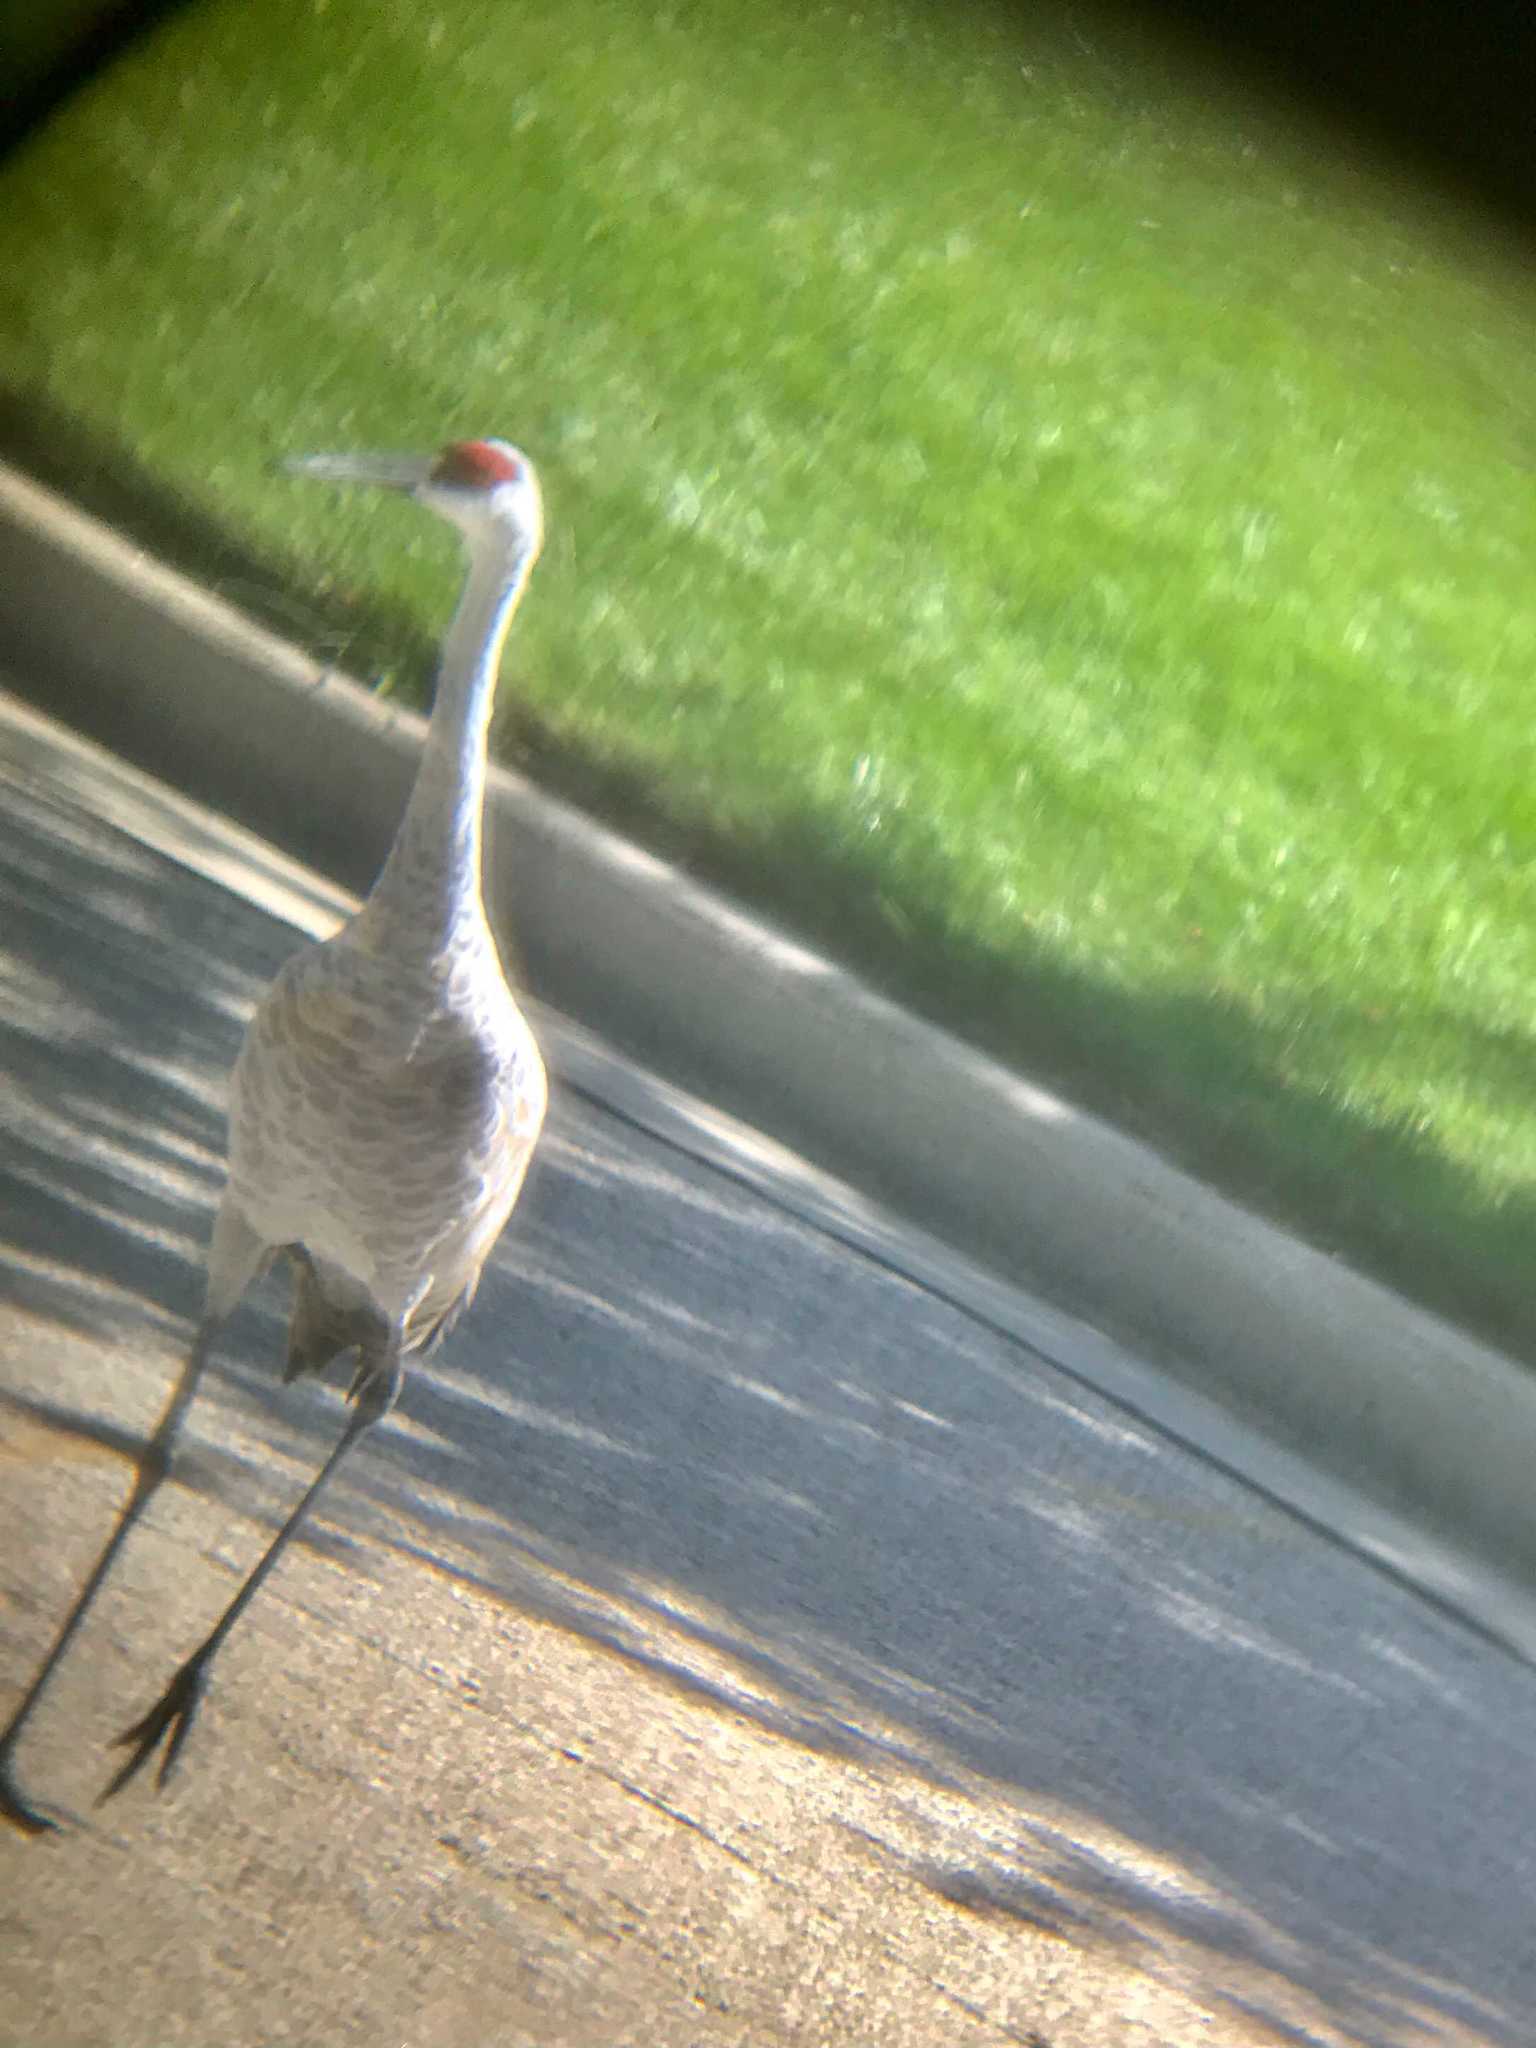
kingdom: Animalia
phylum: Chordata
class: Aves
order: Gruiformes
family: Gruidae
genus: Grus
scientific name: Grus canadensis
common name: Sandhill crane
